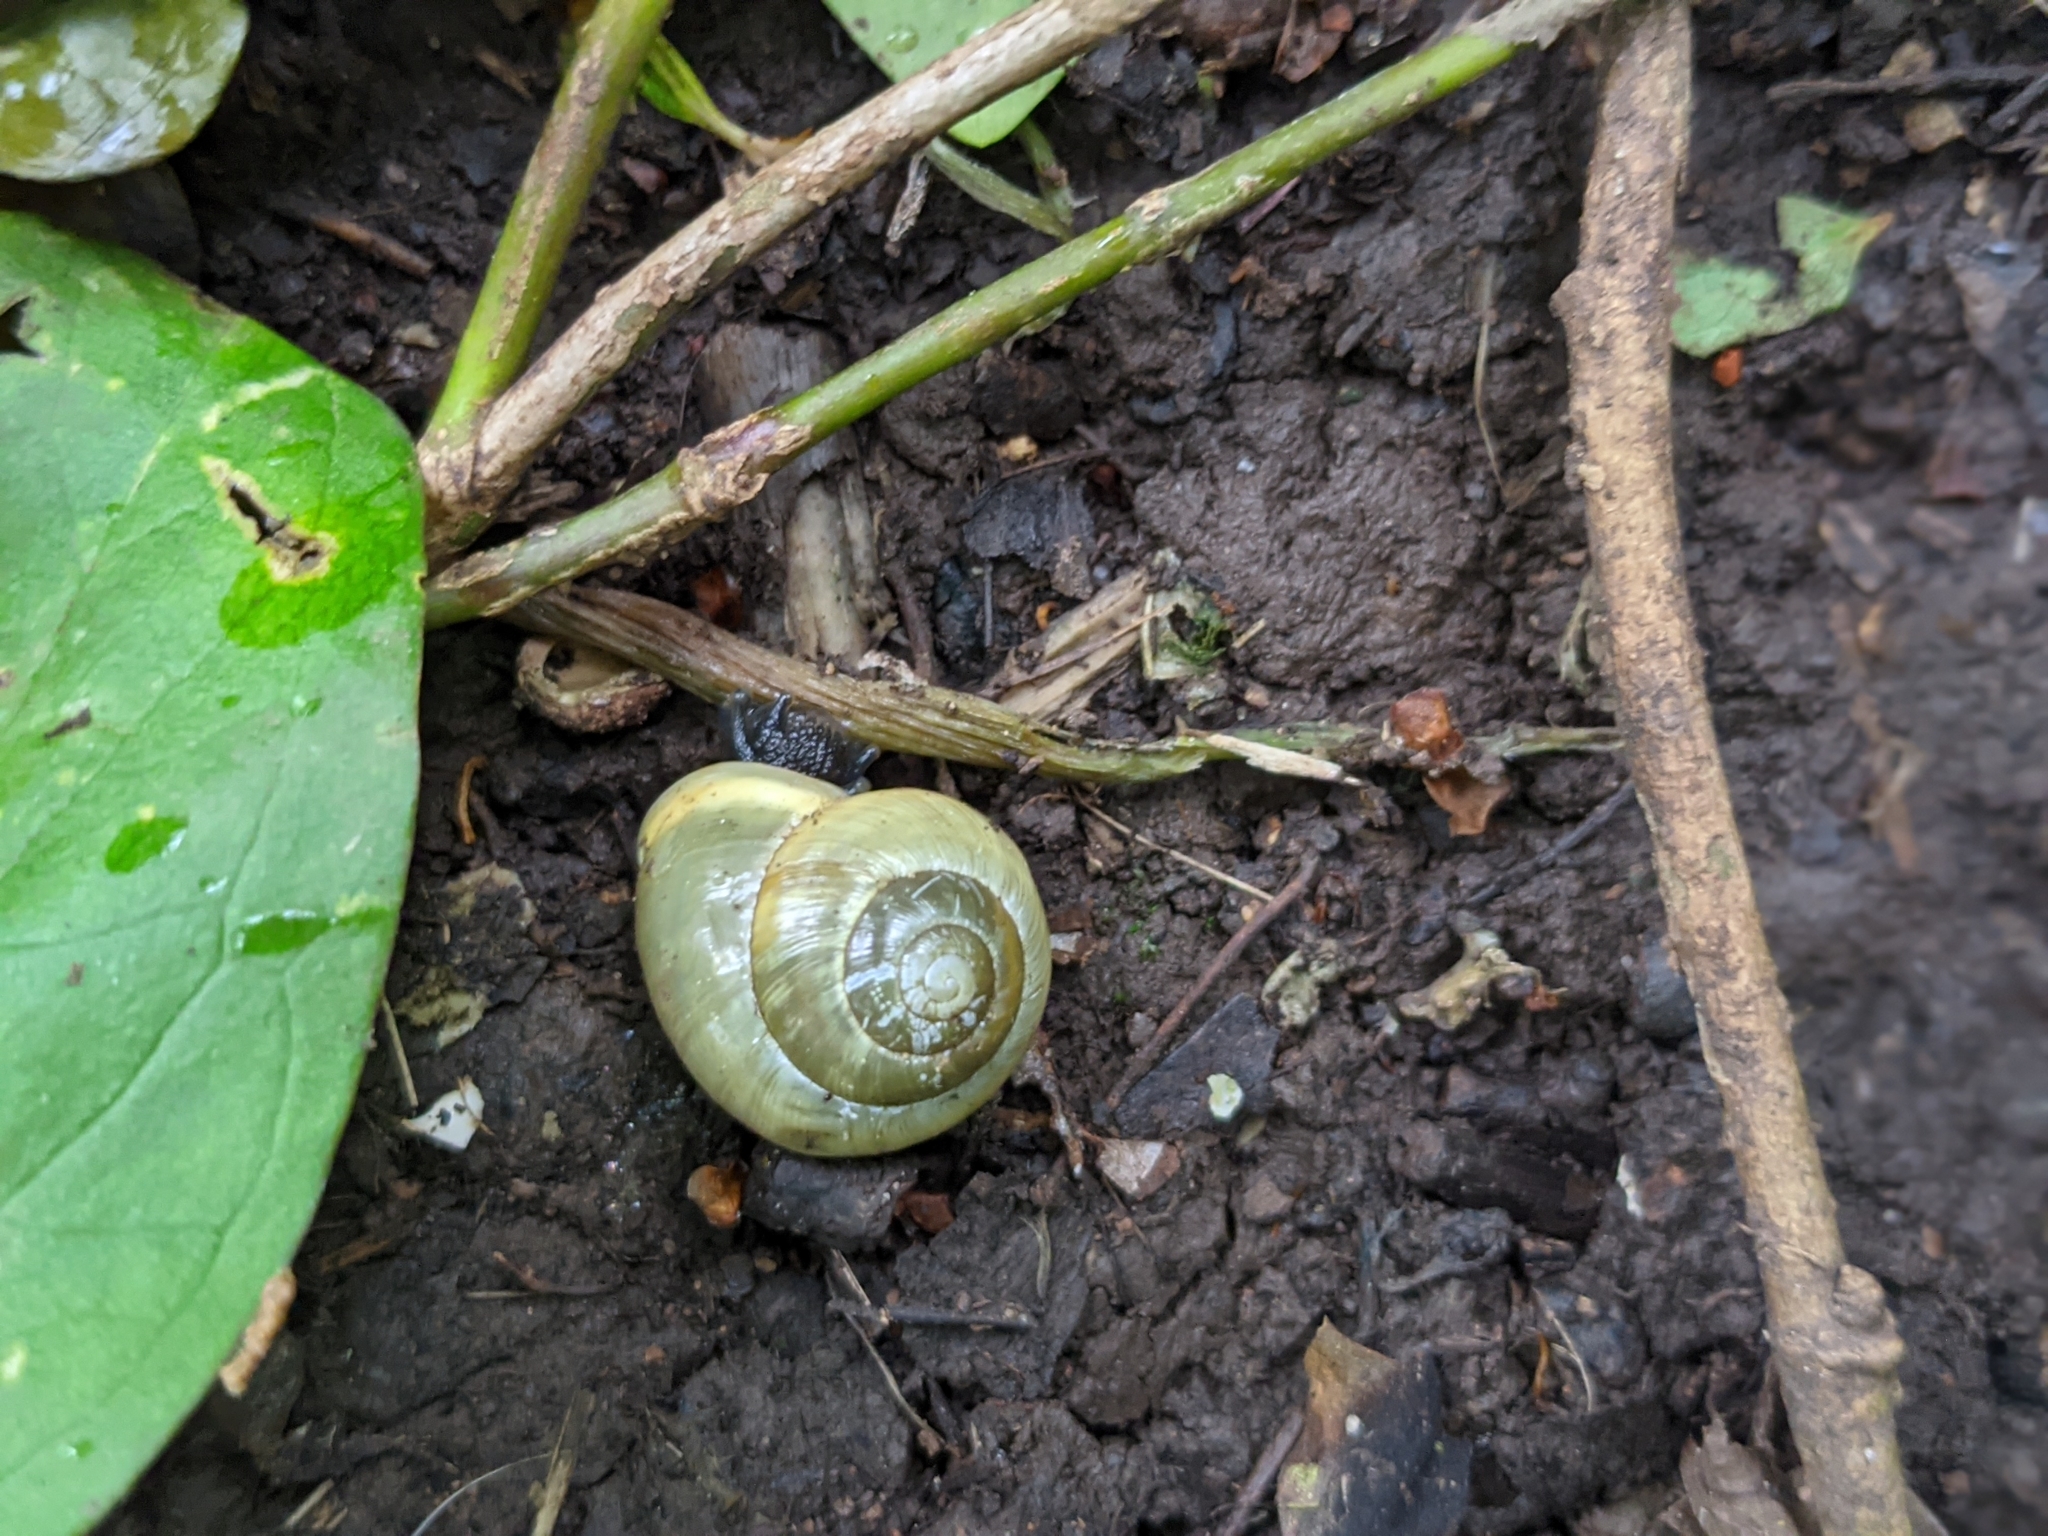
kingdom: Animalia
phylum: Mollusca
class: Gastropoda
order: Stylommatophora
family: Helicidae
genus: Cepaea
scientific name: Cepaea hortensis
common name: White-lip gardensnail
